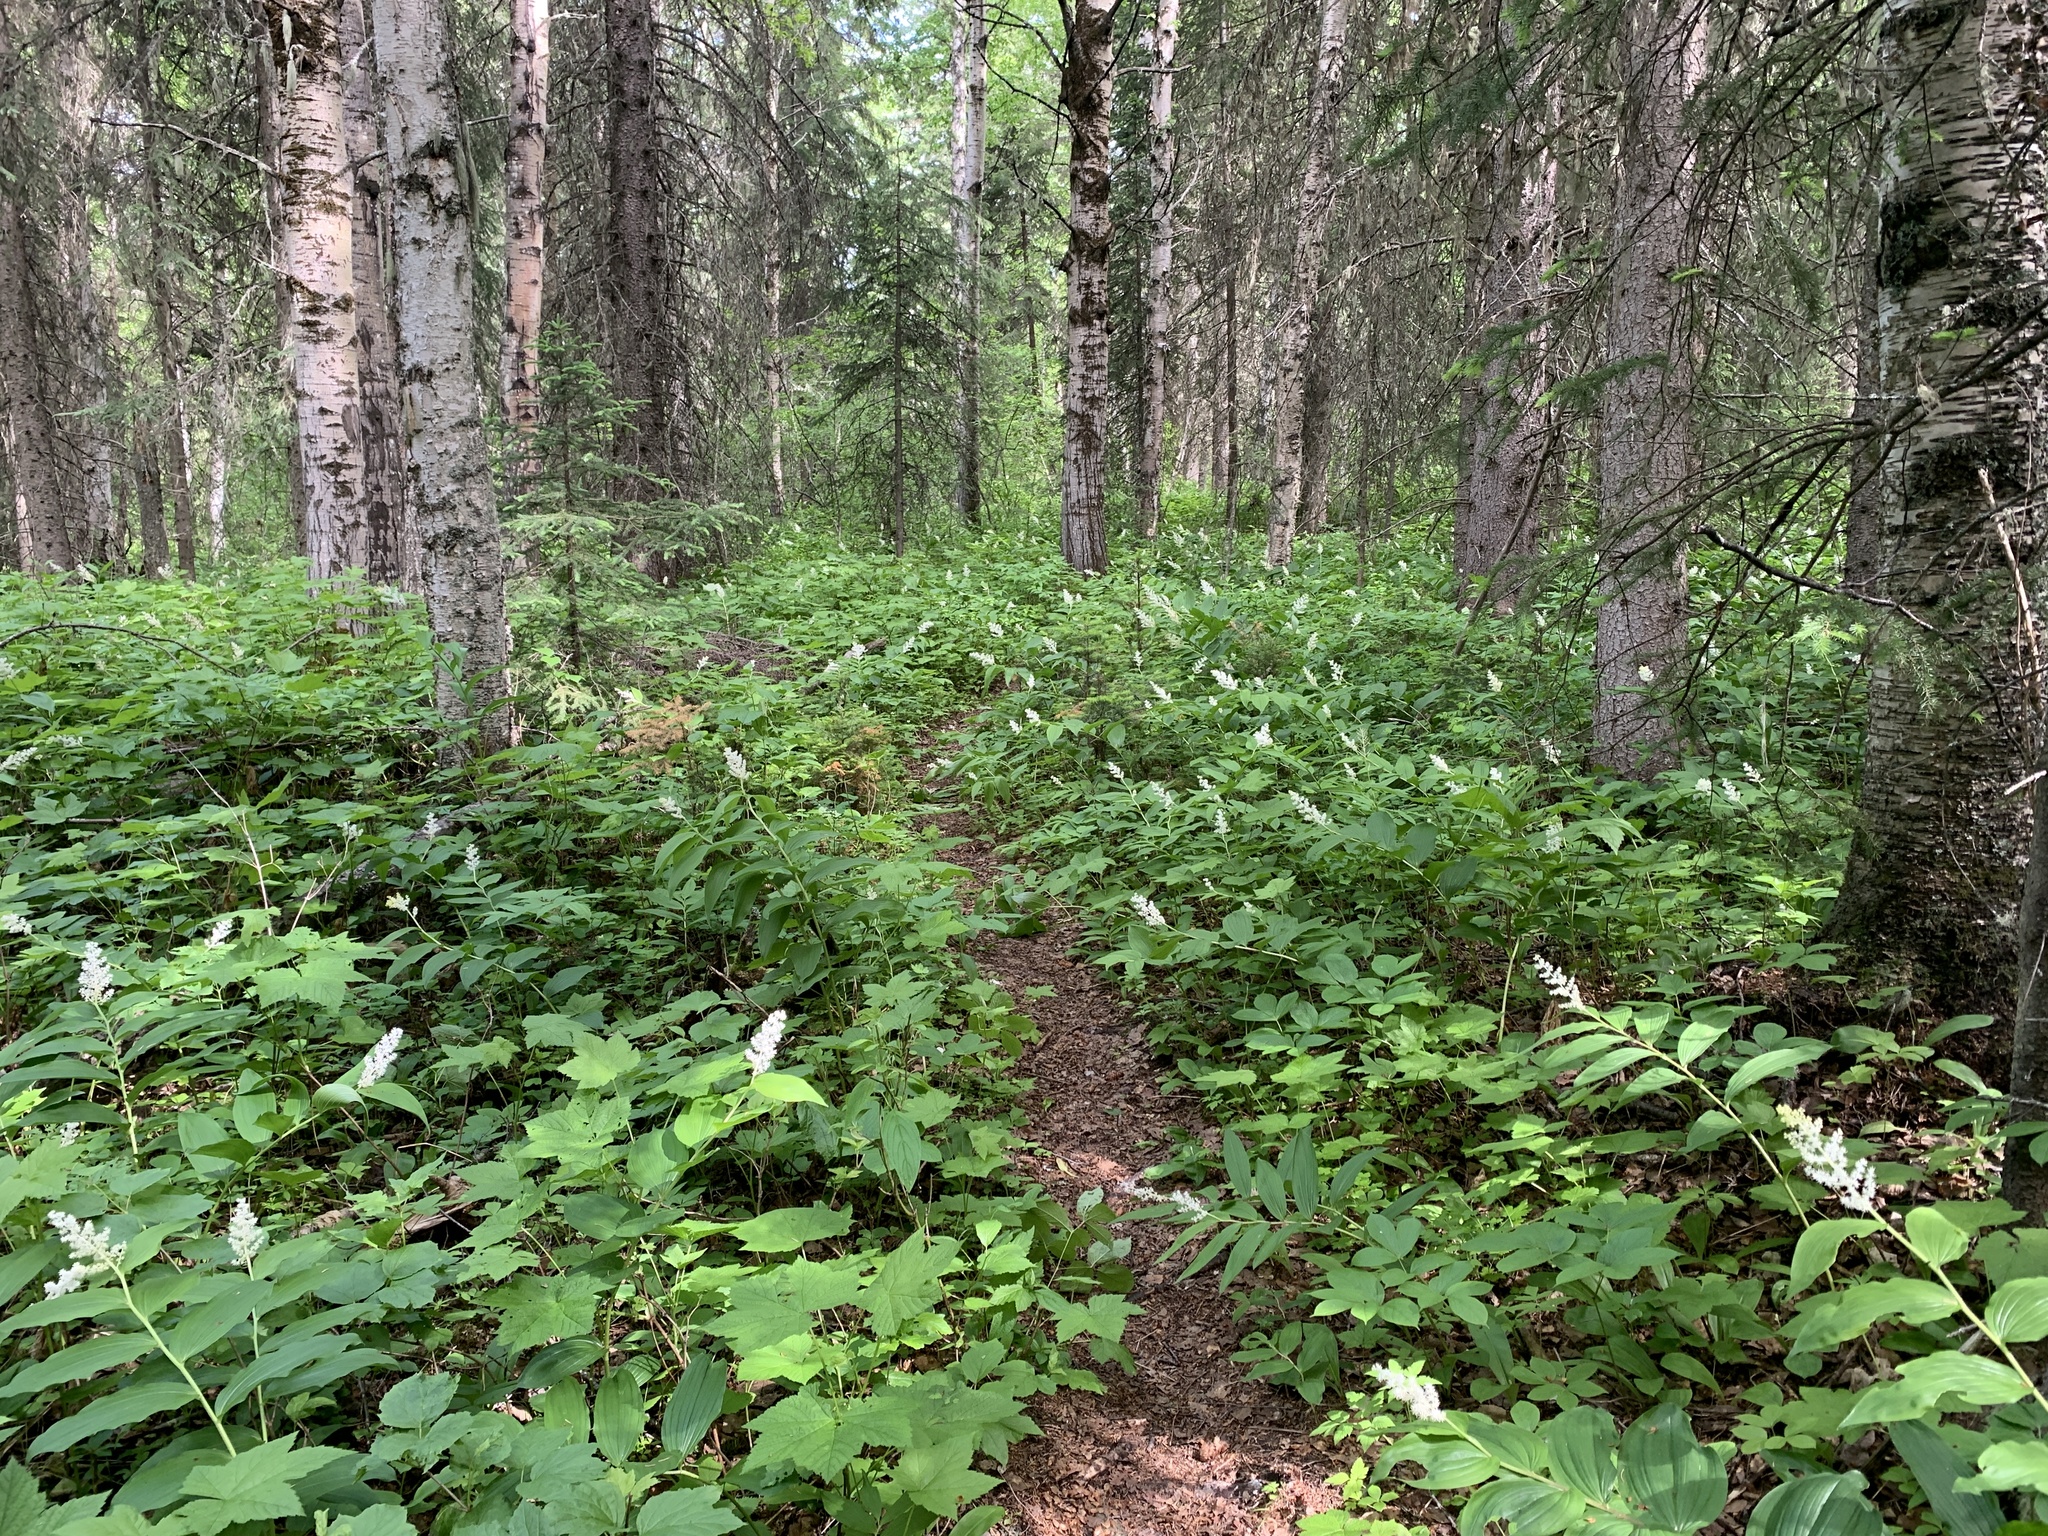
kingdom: Plantae
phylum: Tracheophyta
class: Liliopsida
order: Asparagales
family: Asparagaceae
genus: Maianthemum
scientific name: Maianthemum racemosum
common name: False spikenard
